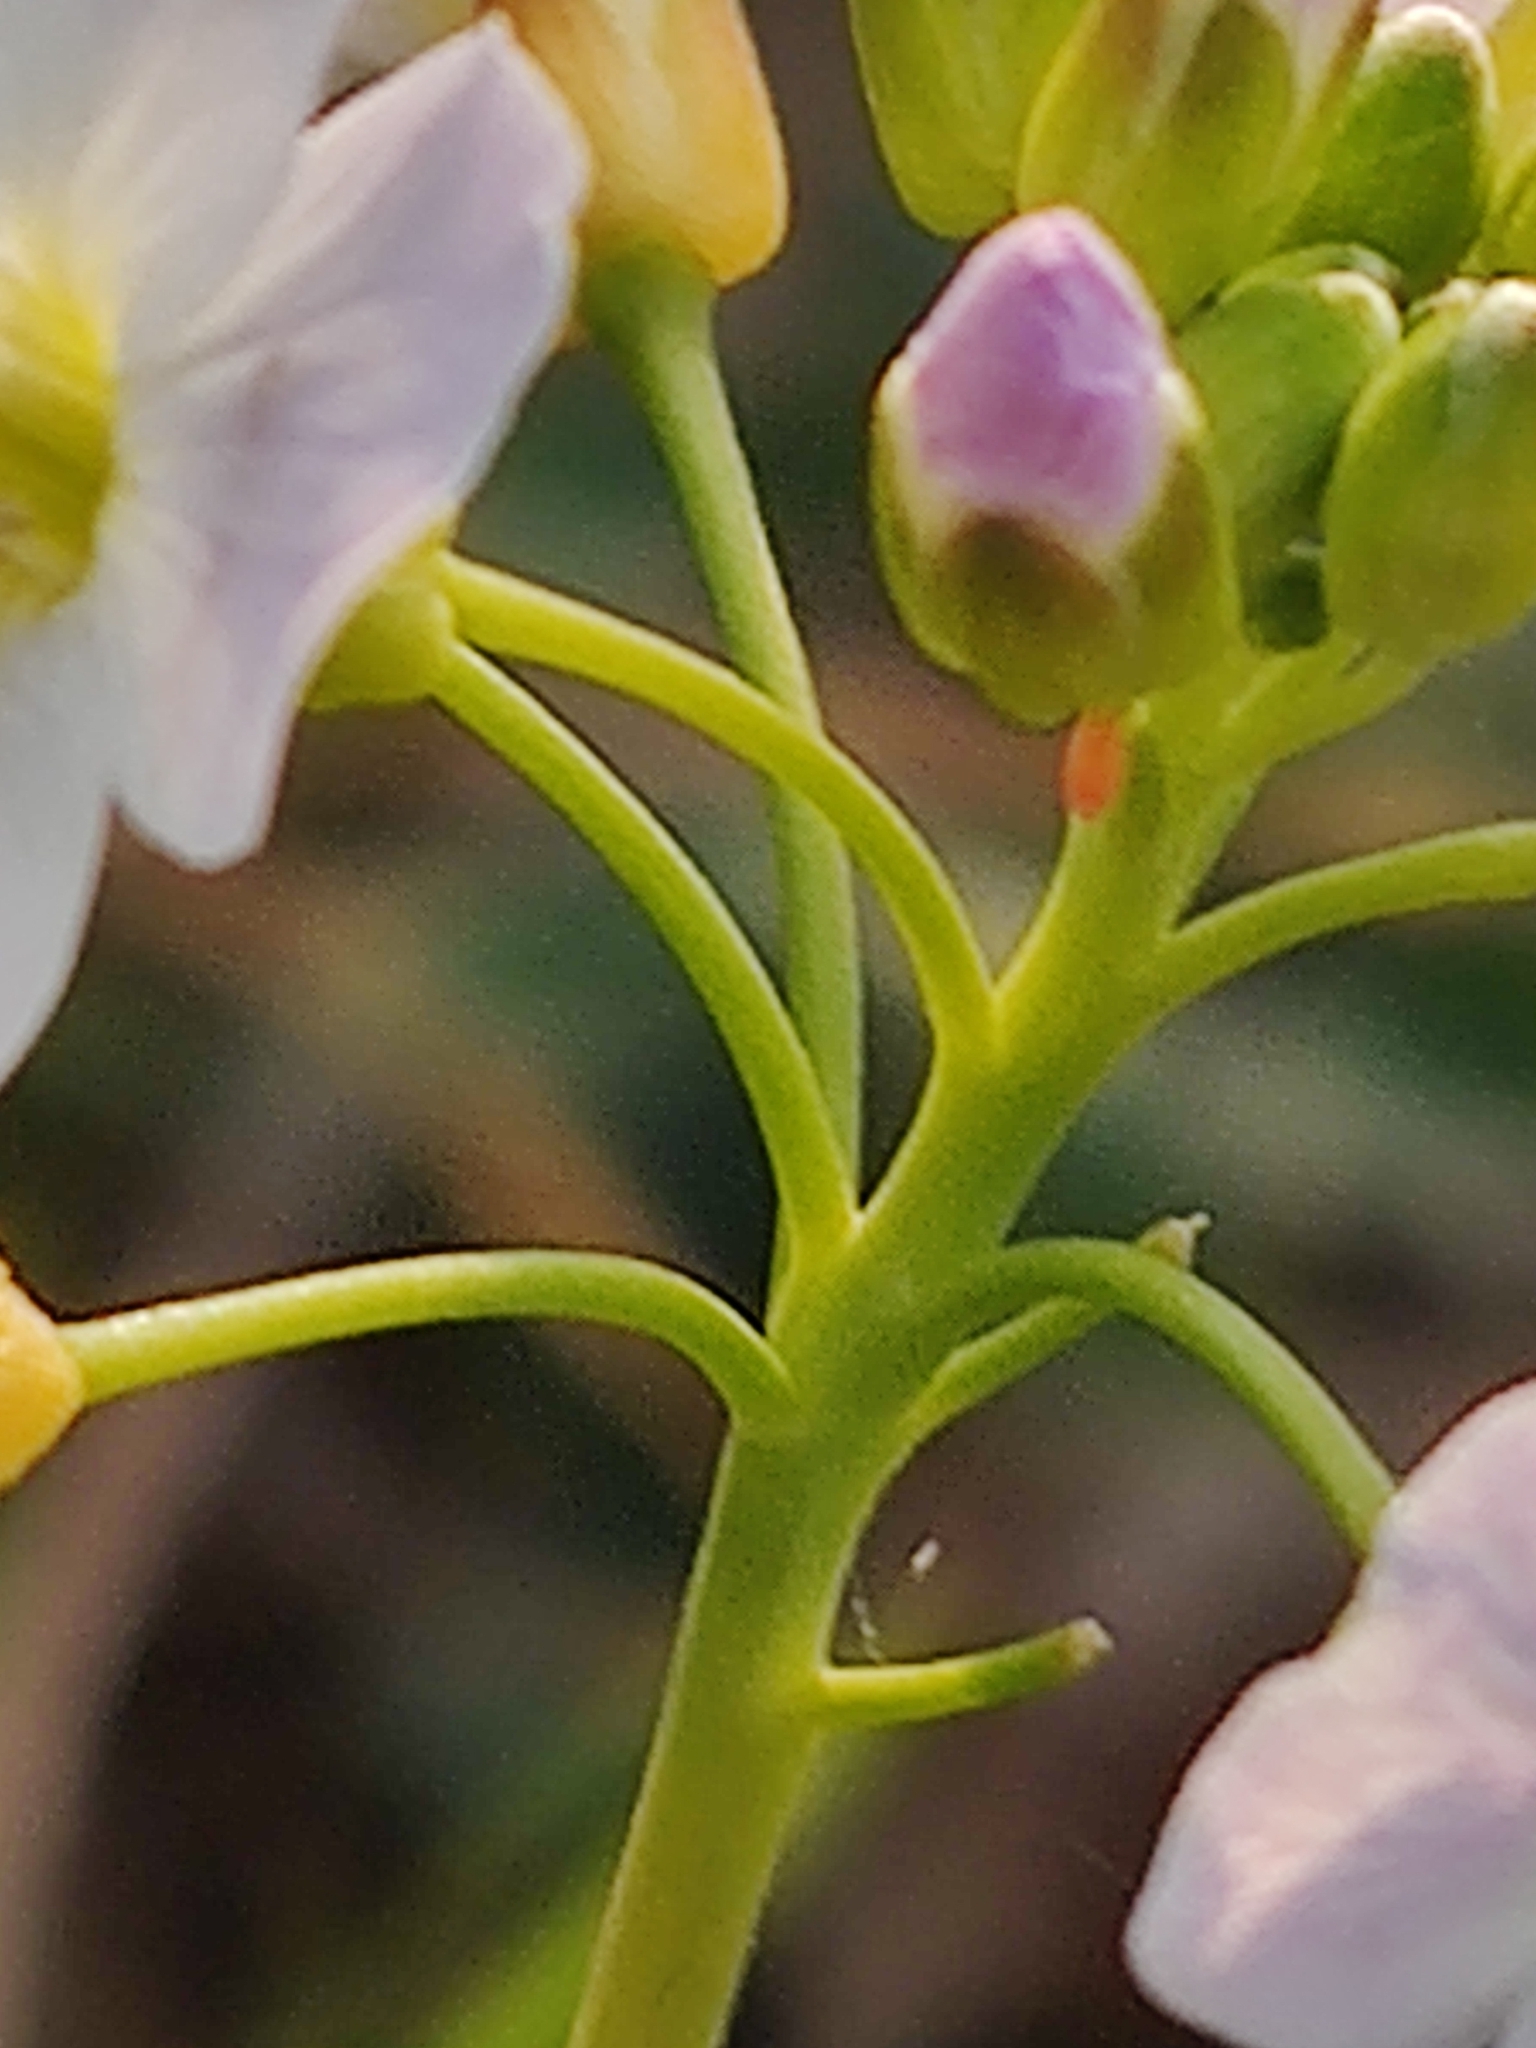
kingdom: Animalia
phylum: Arthropoda
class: Insecta
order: Lepidoptera
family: Pieridae
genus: Anthocharis
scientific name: Anthocharis cardamines
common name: Orange-tip
